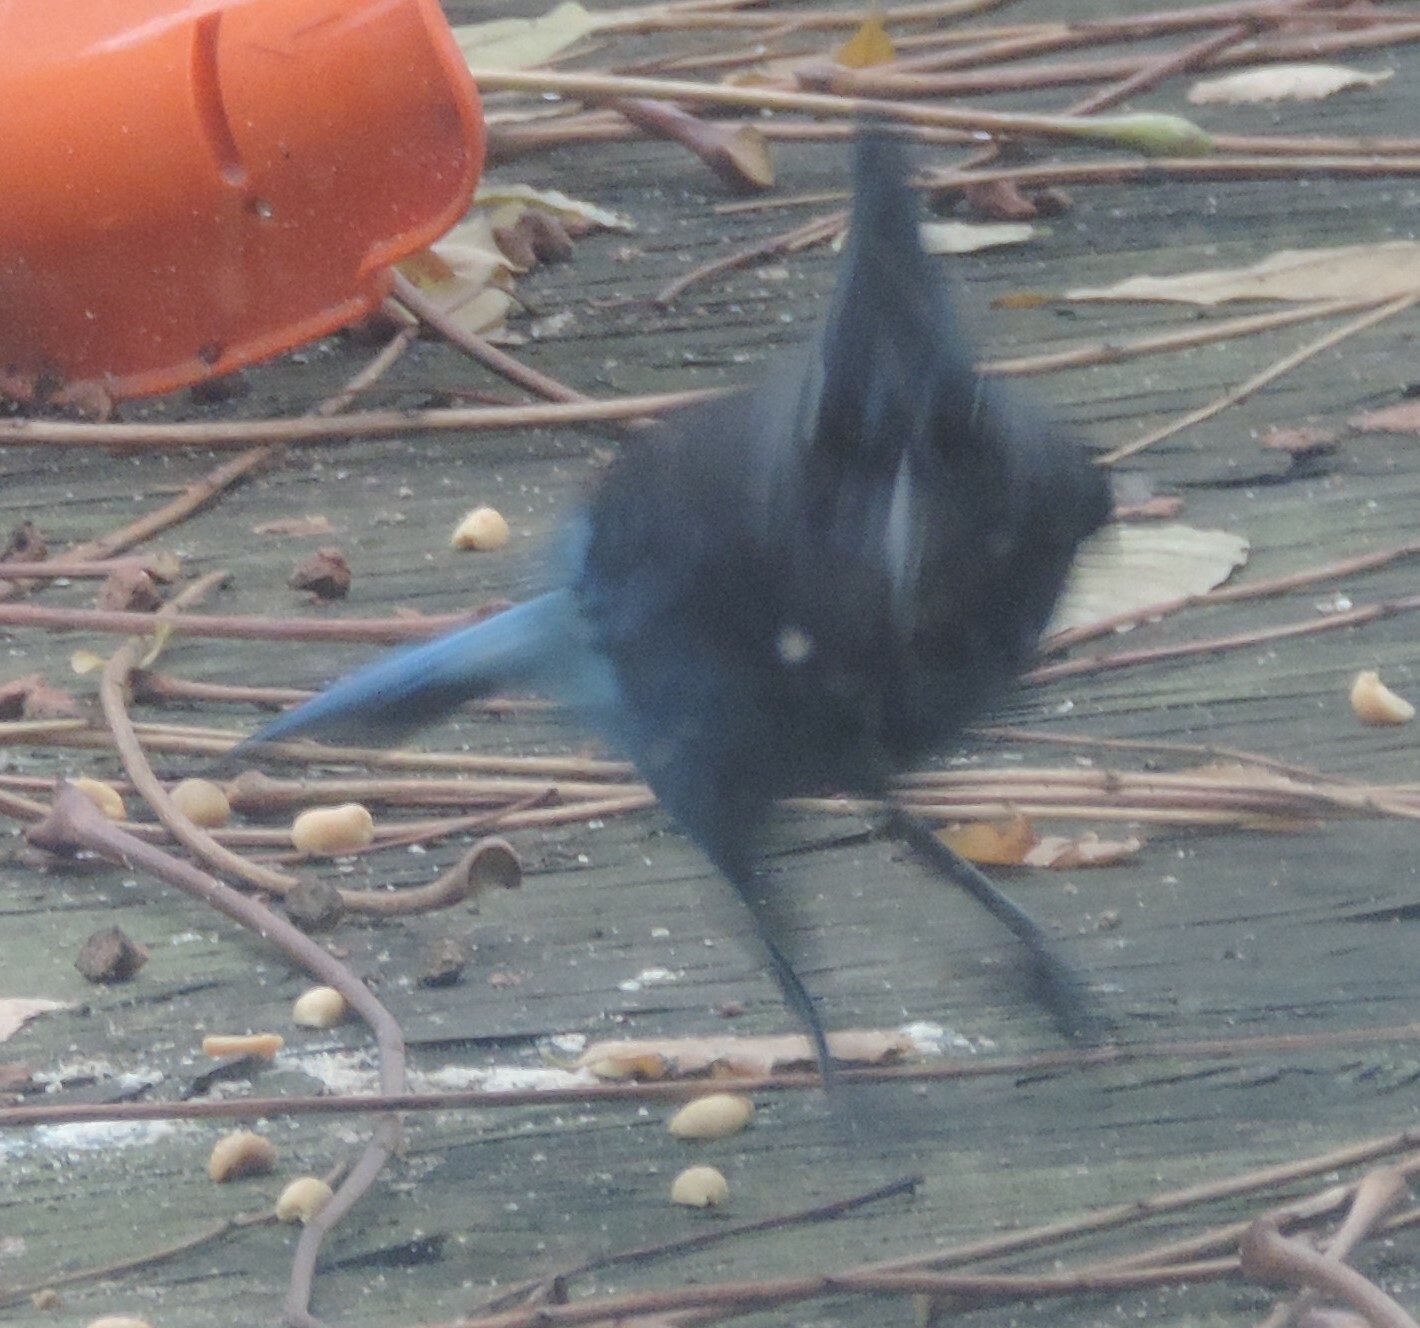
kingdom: Animalia
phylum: Chordata
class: Aves
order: Passeriformes
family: Corvidae
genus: Cyanocitta
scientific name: Cyanocitta stelleri
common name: Steller's jay
